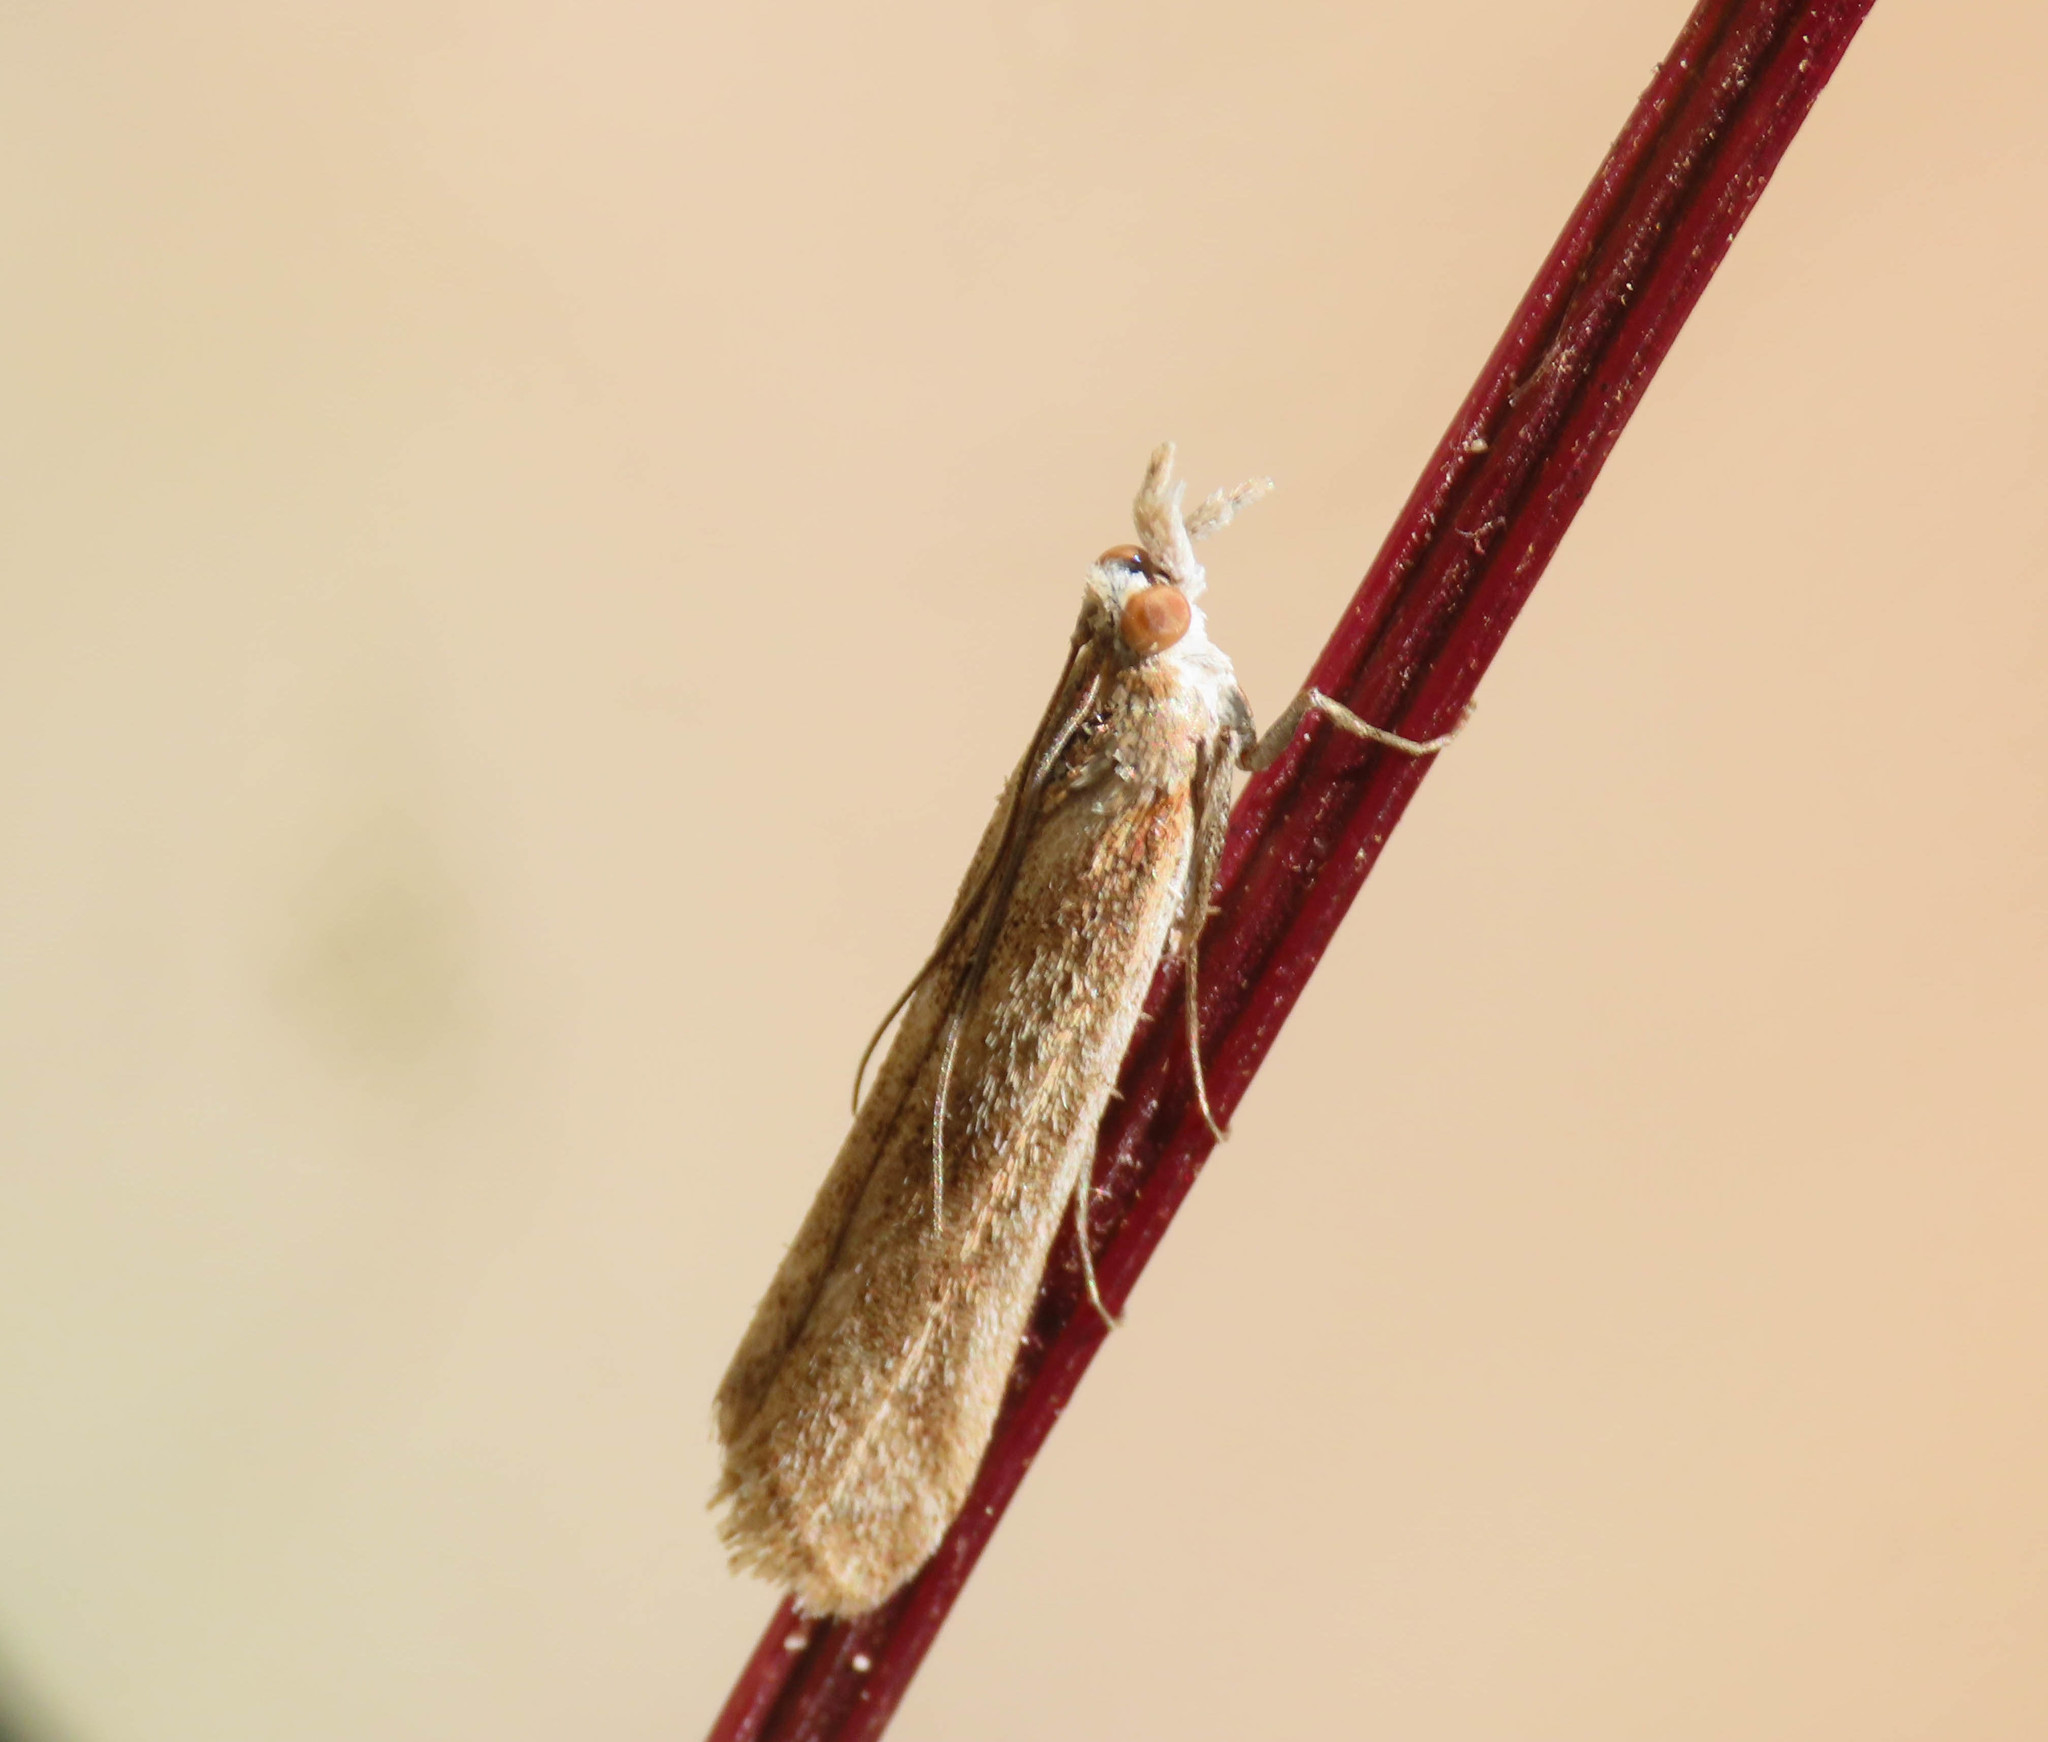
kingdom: Animalia
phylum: Arthropoda
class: Insecta
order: Lepidoptera
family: Pyralidae
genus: Ancylosis
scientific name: Ancylosis cinnamomella
